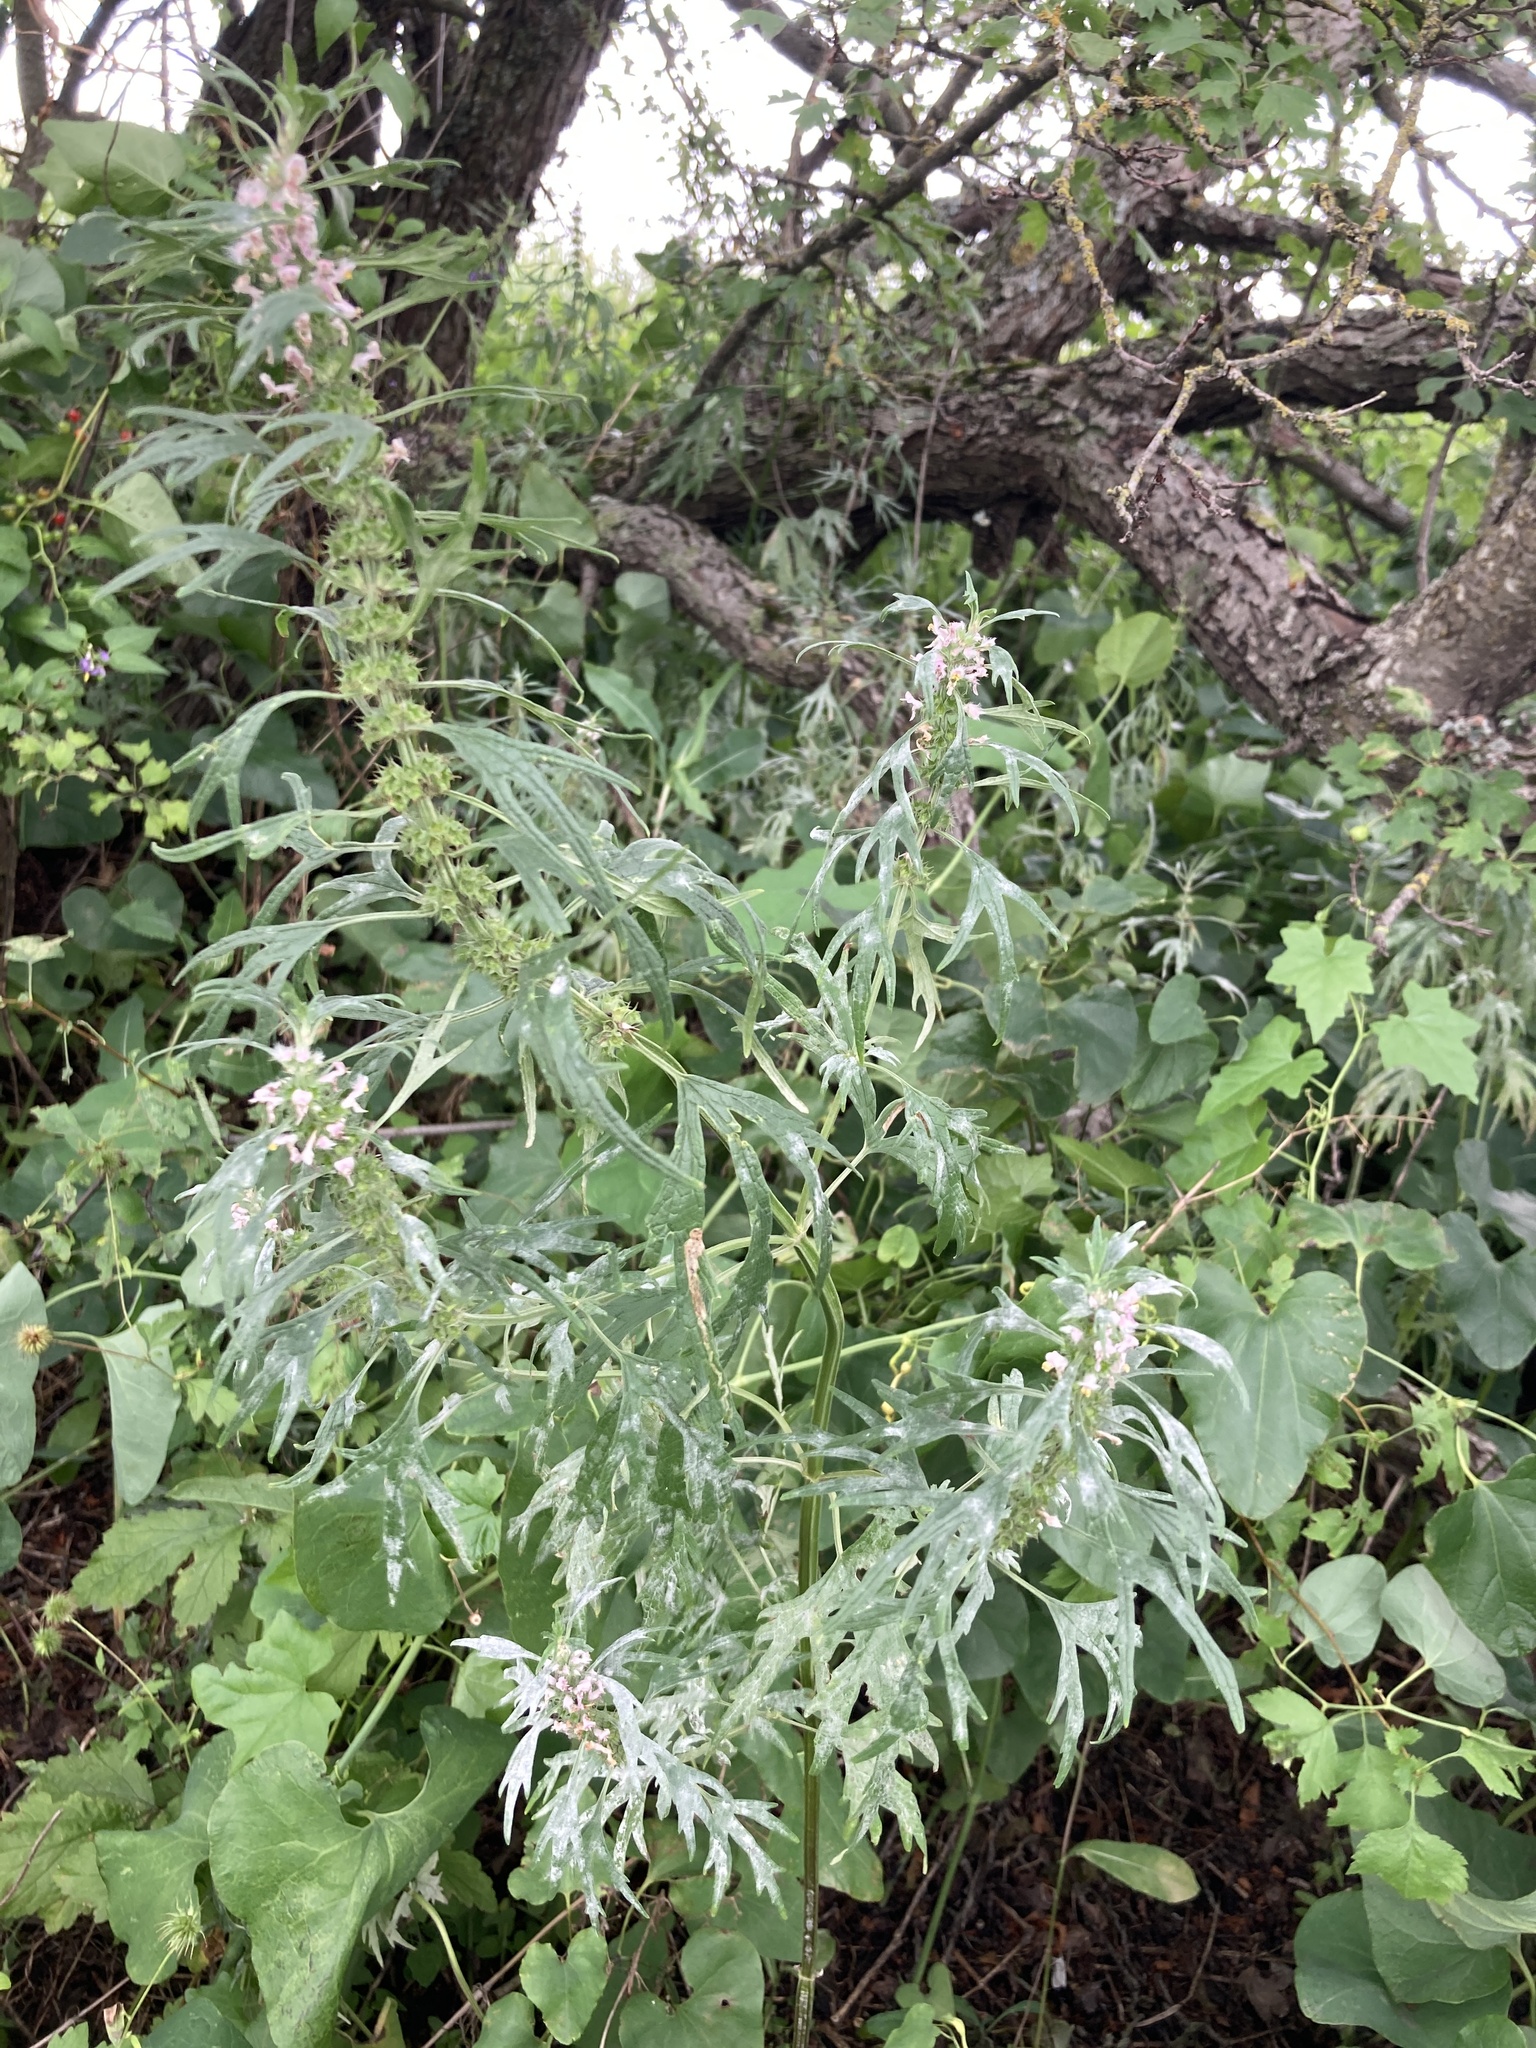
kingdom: Plantae
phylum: Tracheophyta
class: Magnoliopsida
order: Lamiales
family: Lamiaceae
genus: Leonurus
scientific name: Leonurus glaucescens
